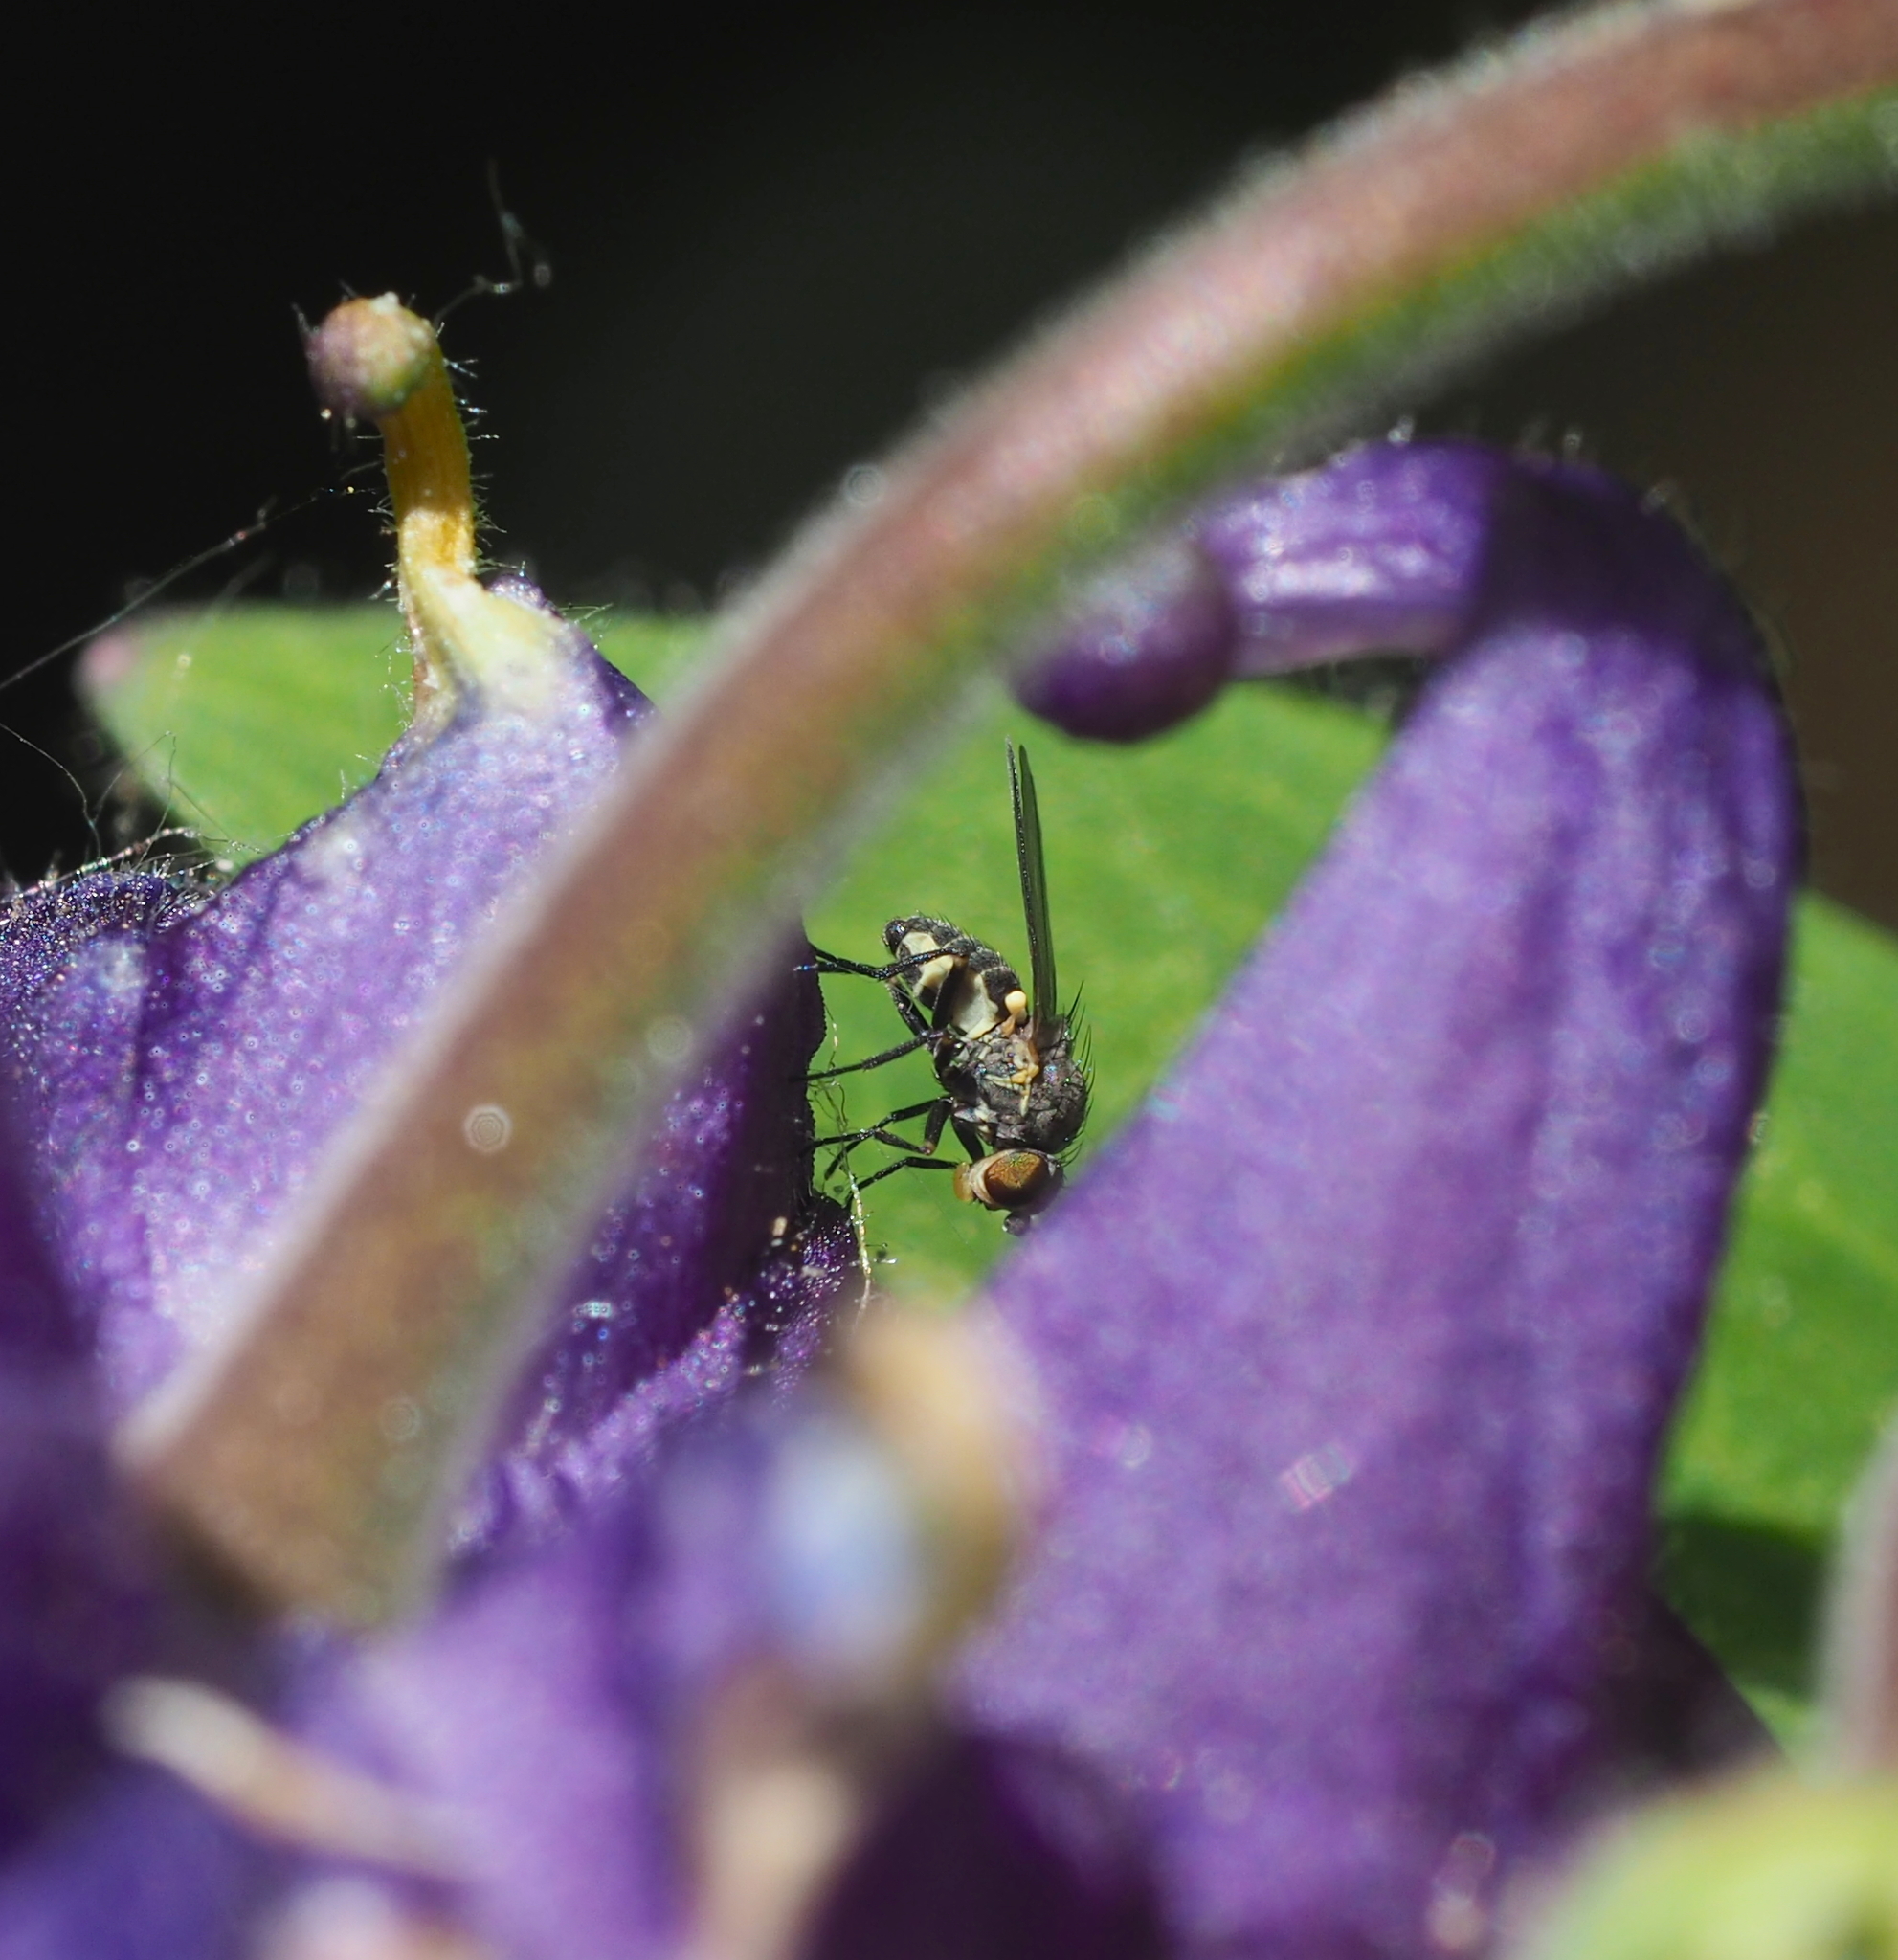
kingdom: Plantae
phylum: Tracheophyta
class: Magnoliopsida
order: Ranunculales
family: Ranunculaceae
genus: Aquilegia
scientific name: Aquilegia vulgaris
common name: Columbine
